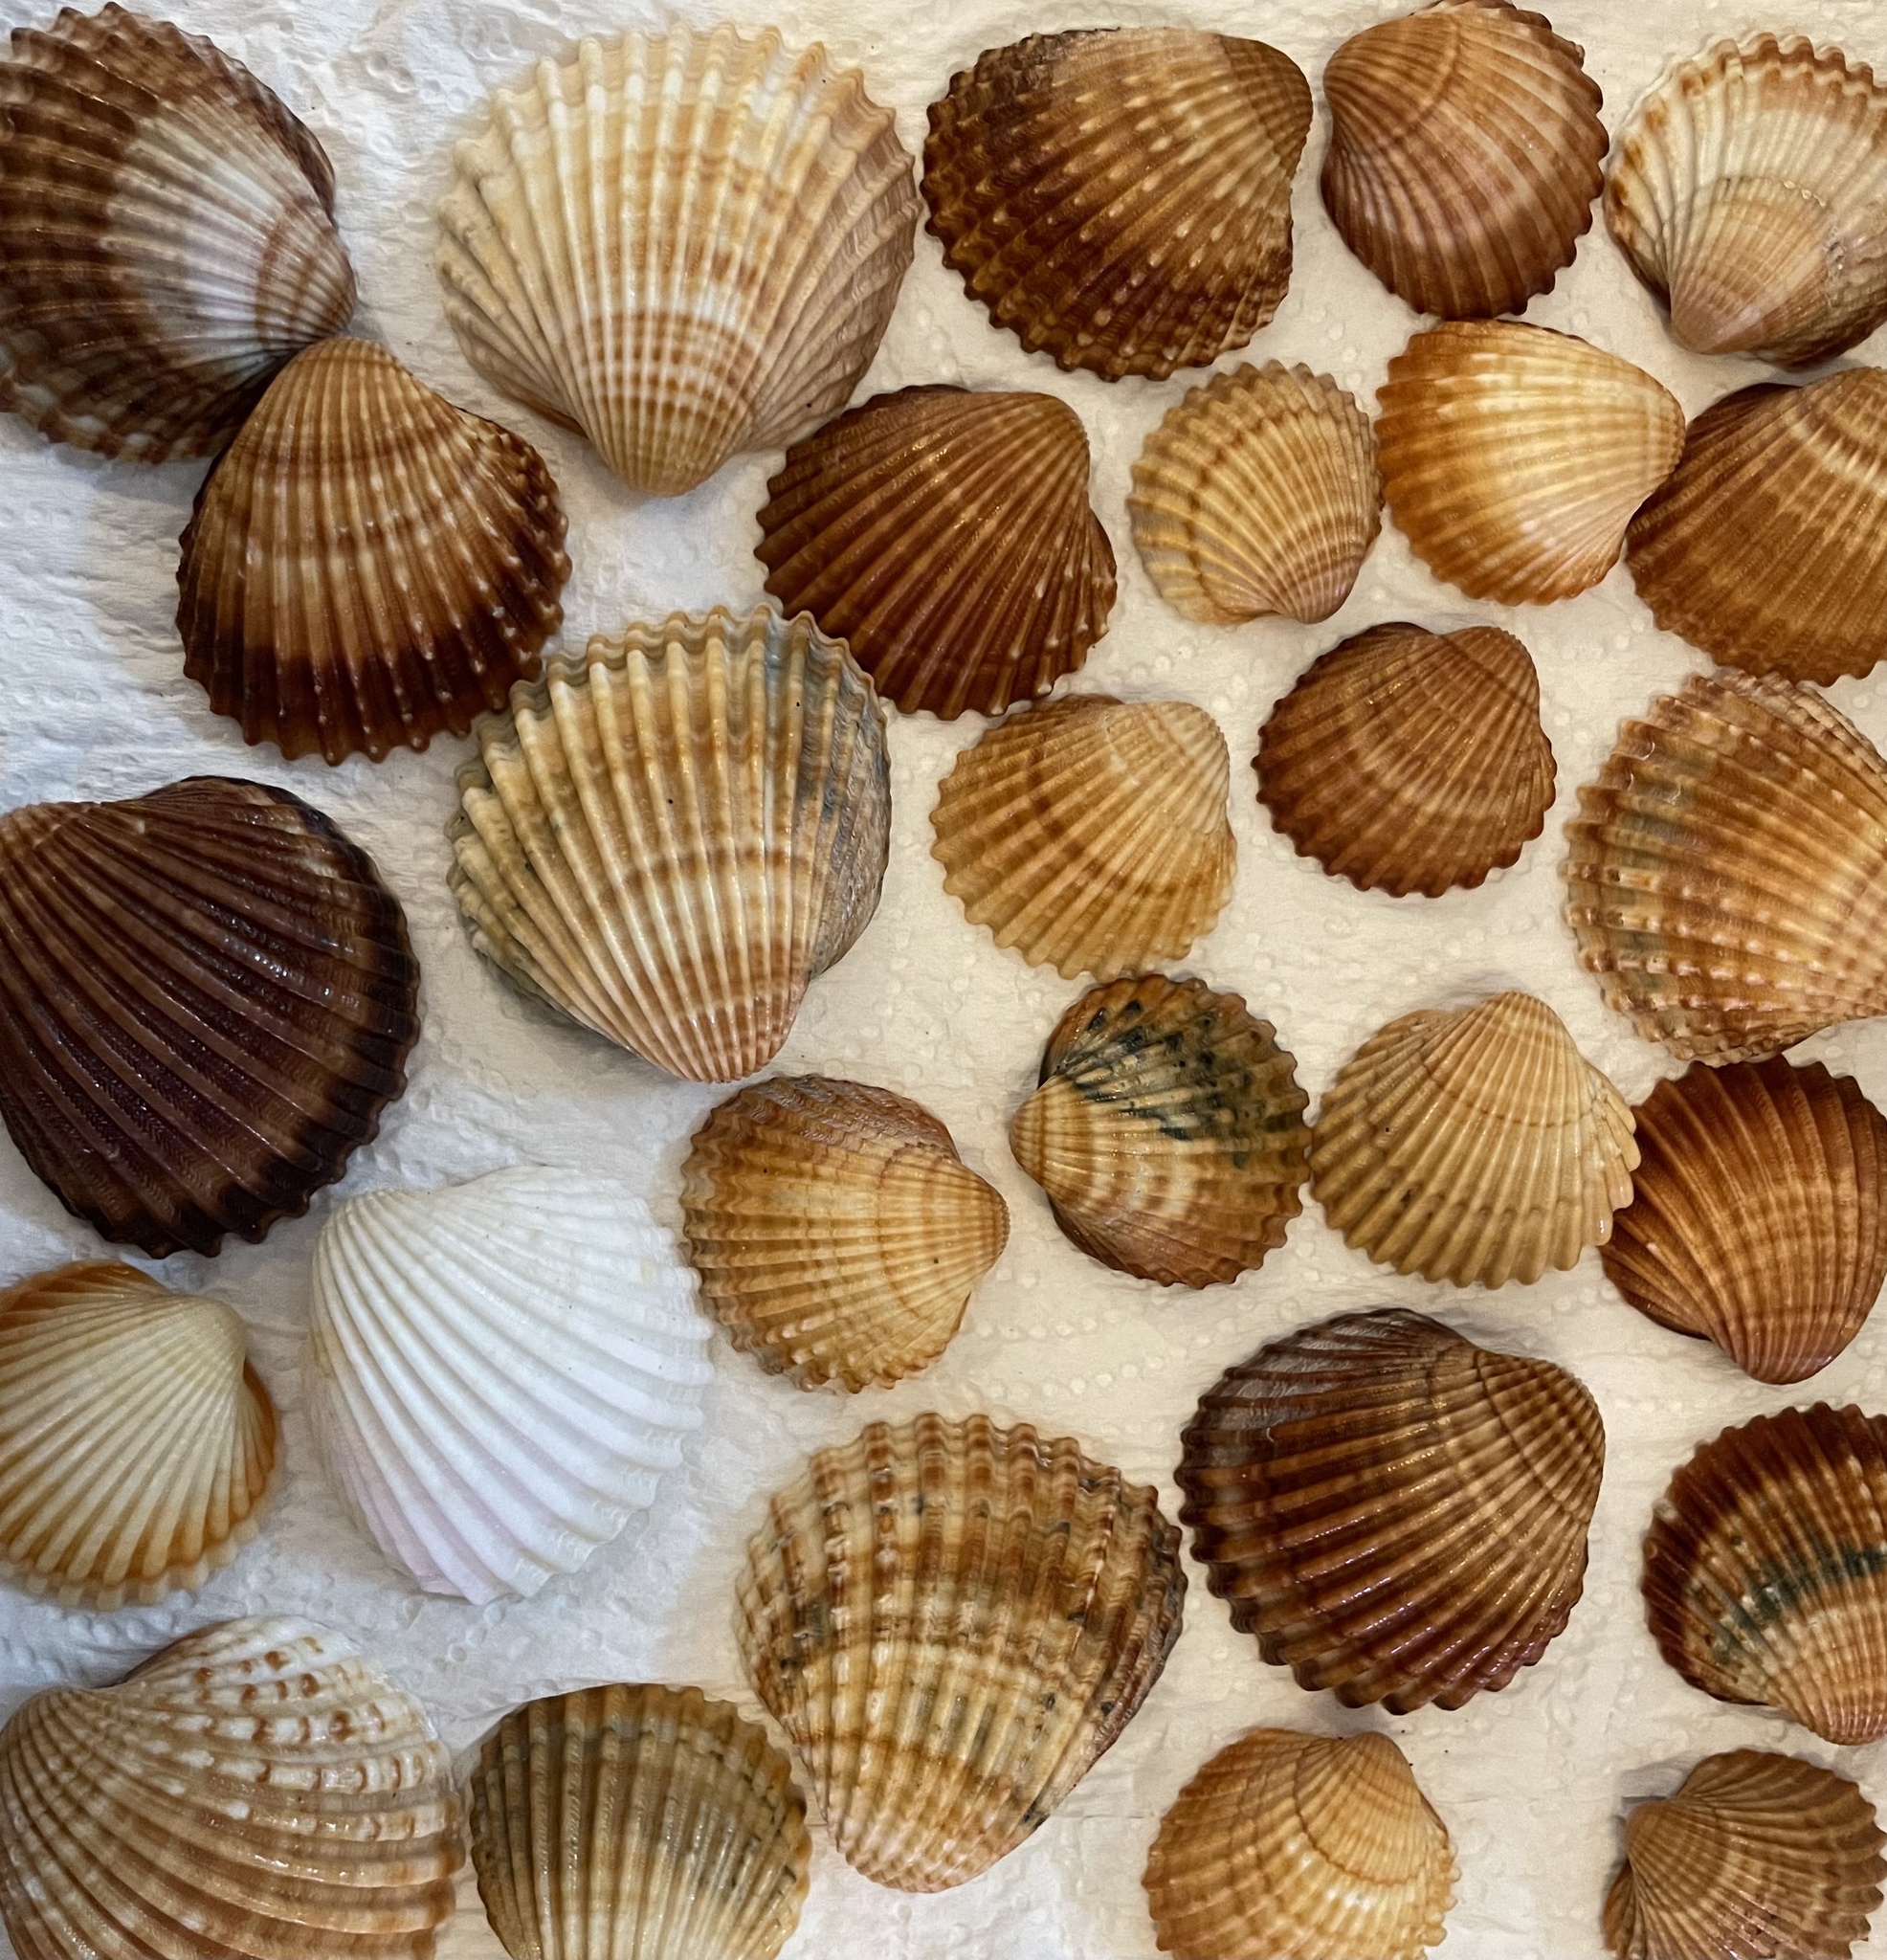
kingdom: Animalia
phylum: Mollusca
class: Bivalvia
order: Cardiida
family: Cardiidae
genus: Acanthocardia
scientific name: Acanthocardia tuberculata
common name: Rough cockle
